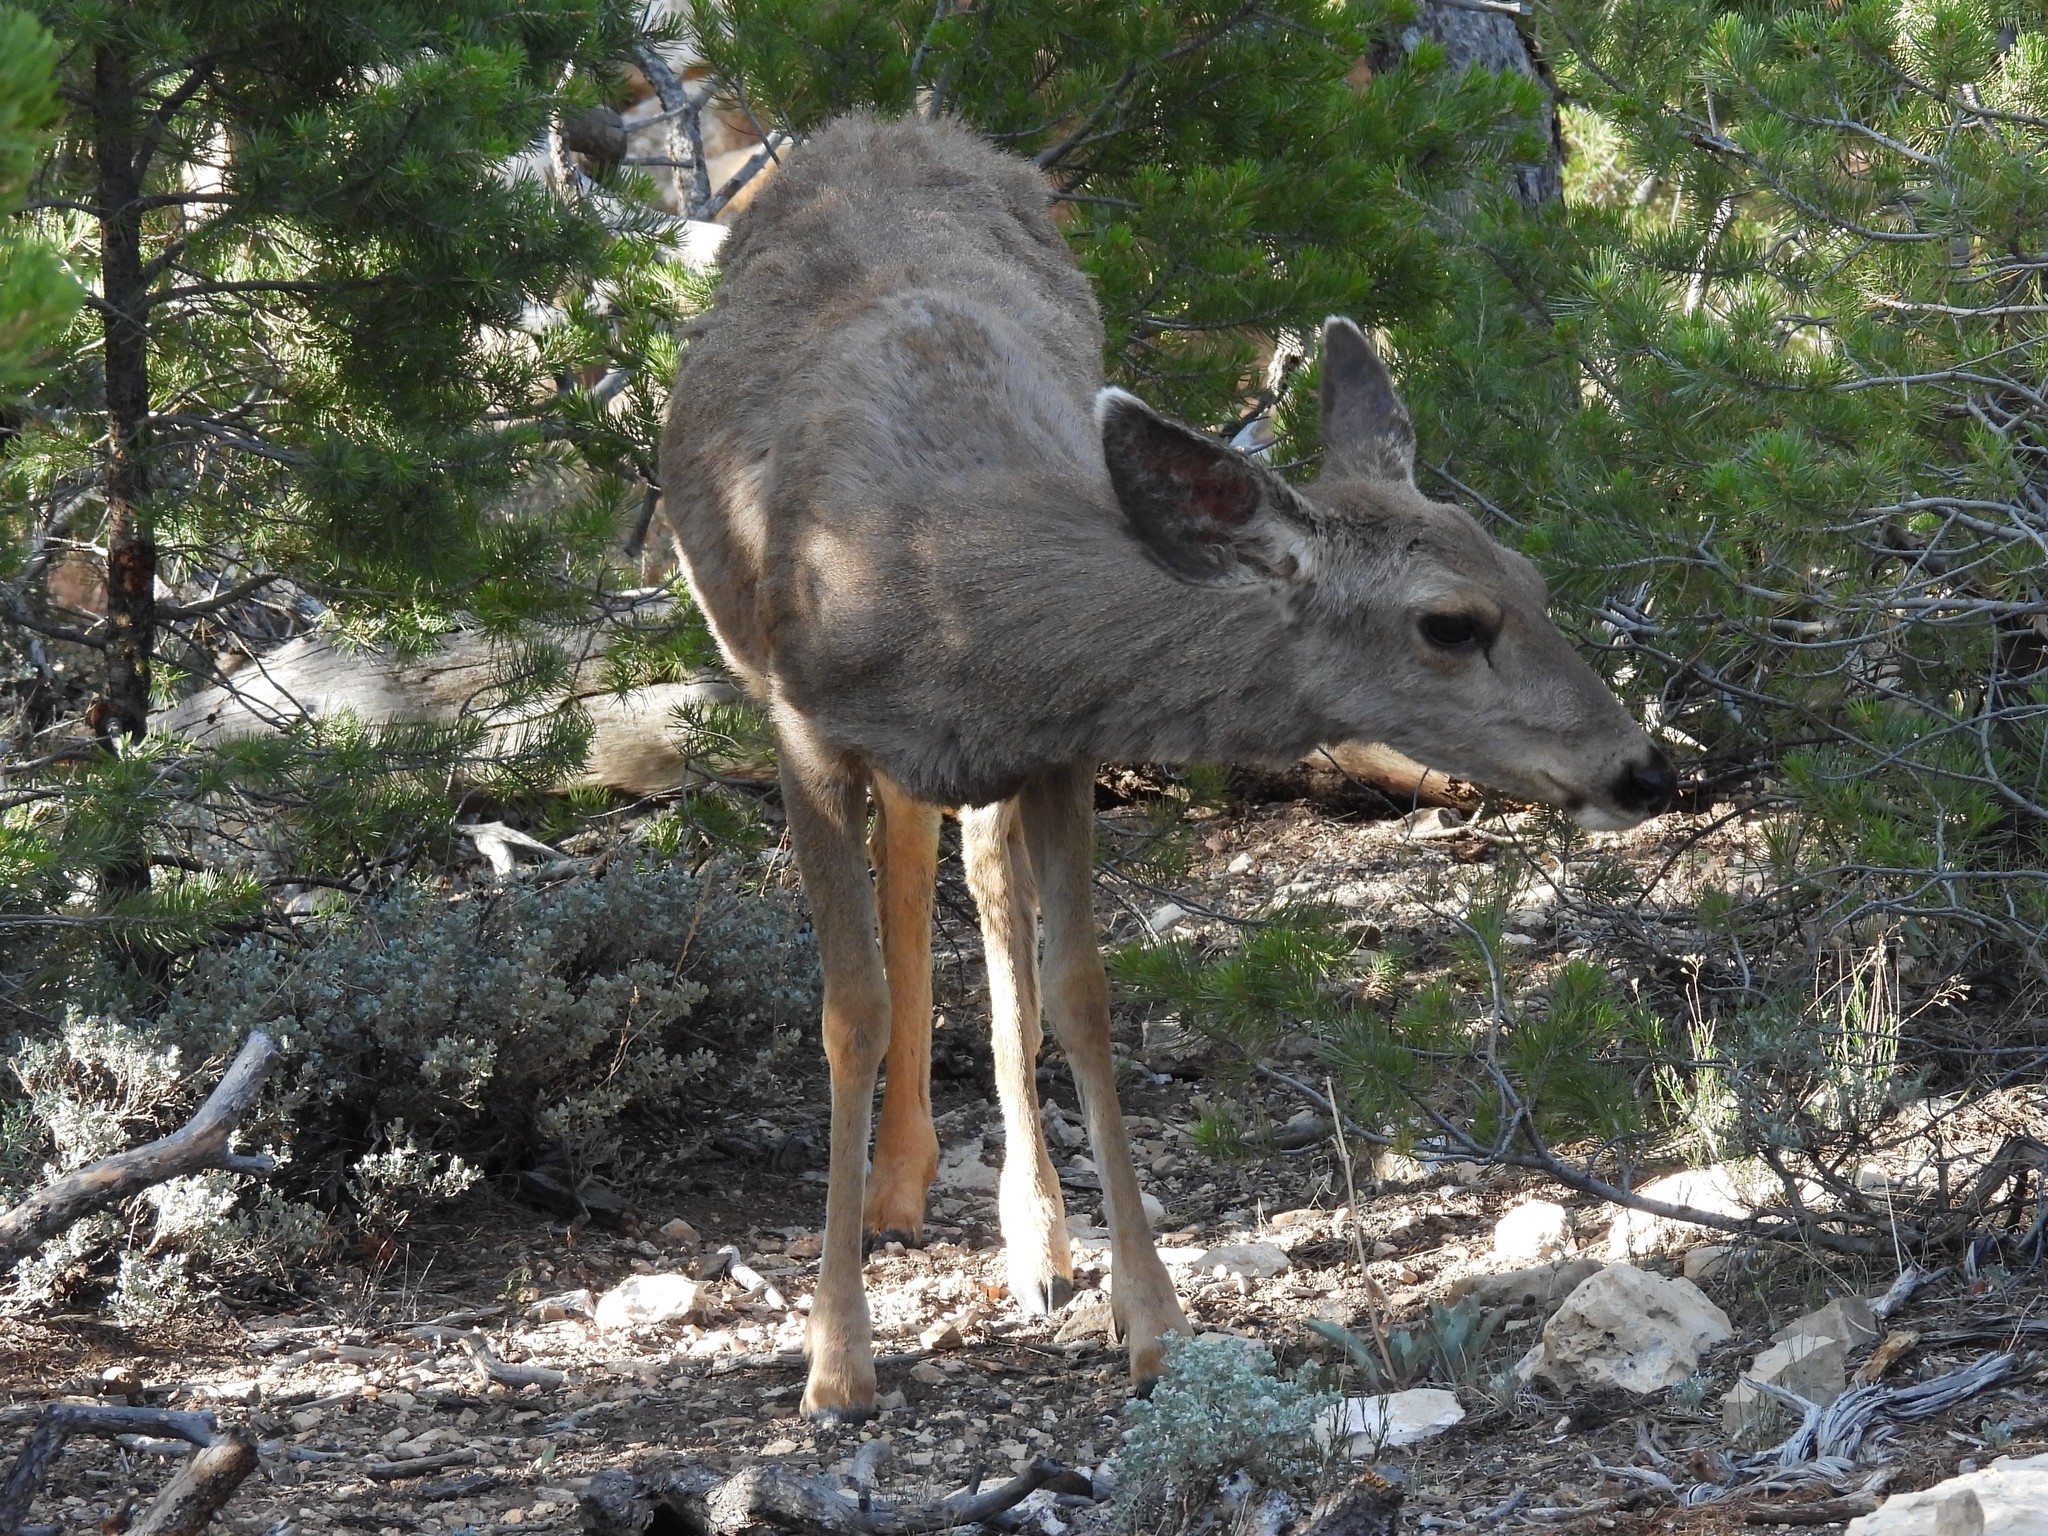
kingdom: Animalia
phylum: Chordata
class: Mammalia
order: Artiodactyla
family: Cervidae
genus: Odocoileus
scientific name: Odocoileus hemionus
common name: Mule deer
